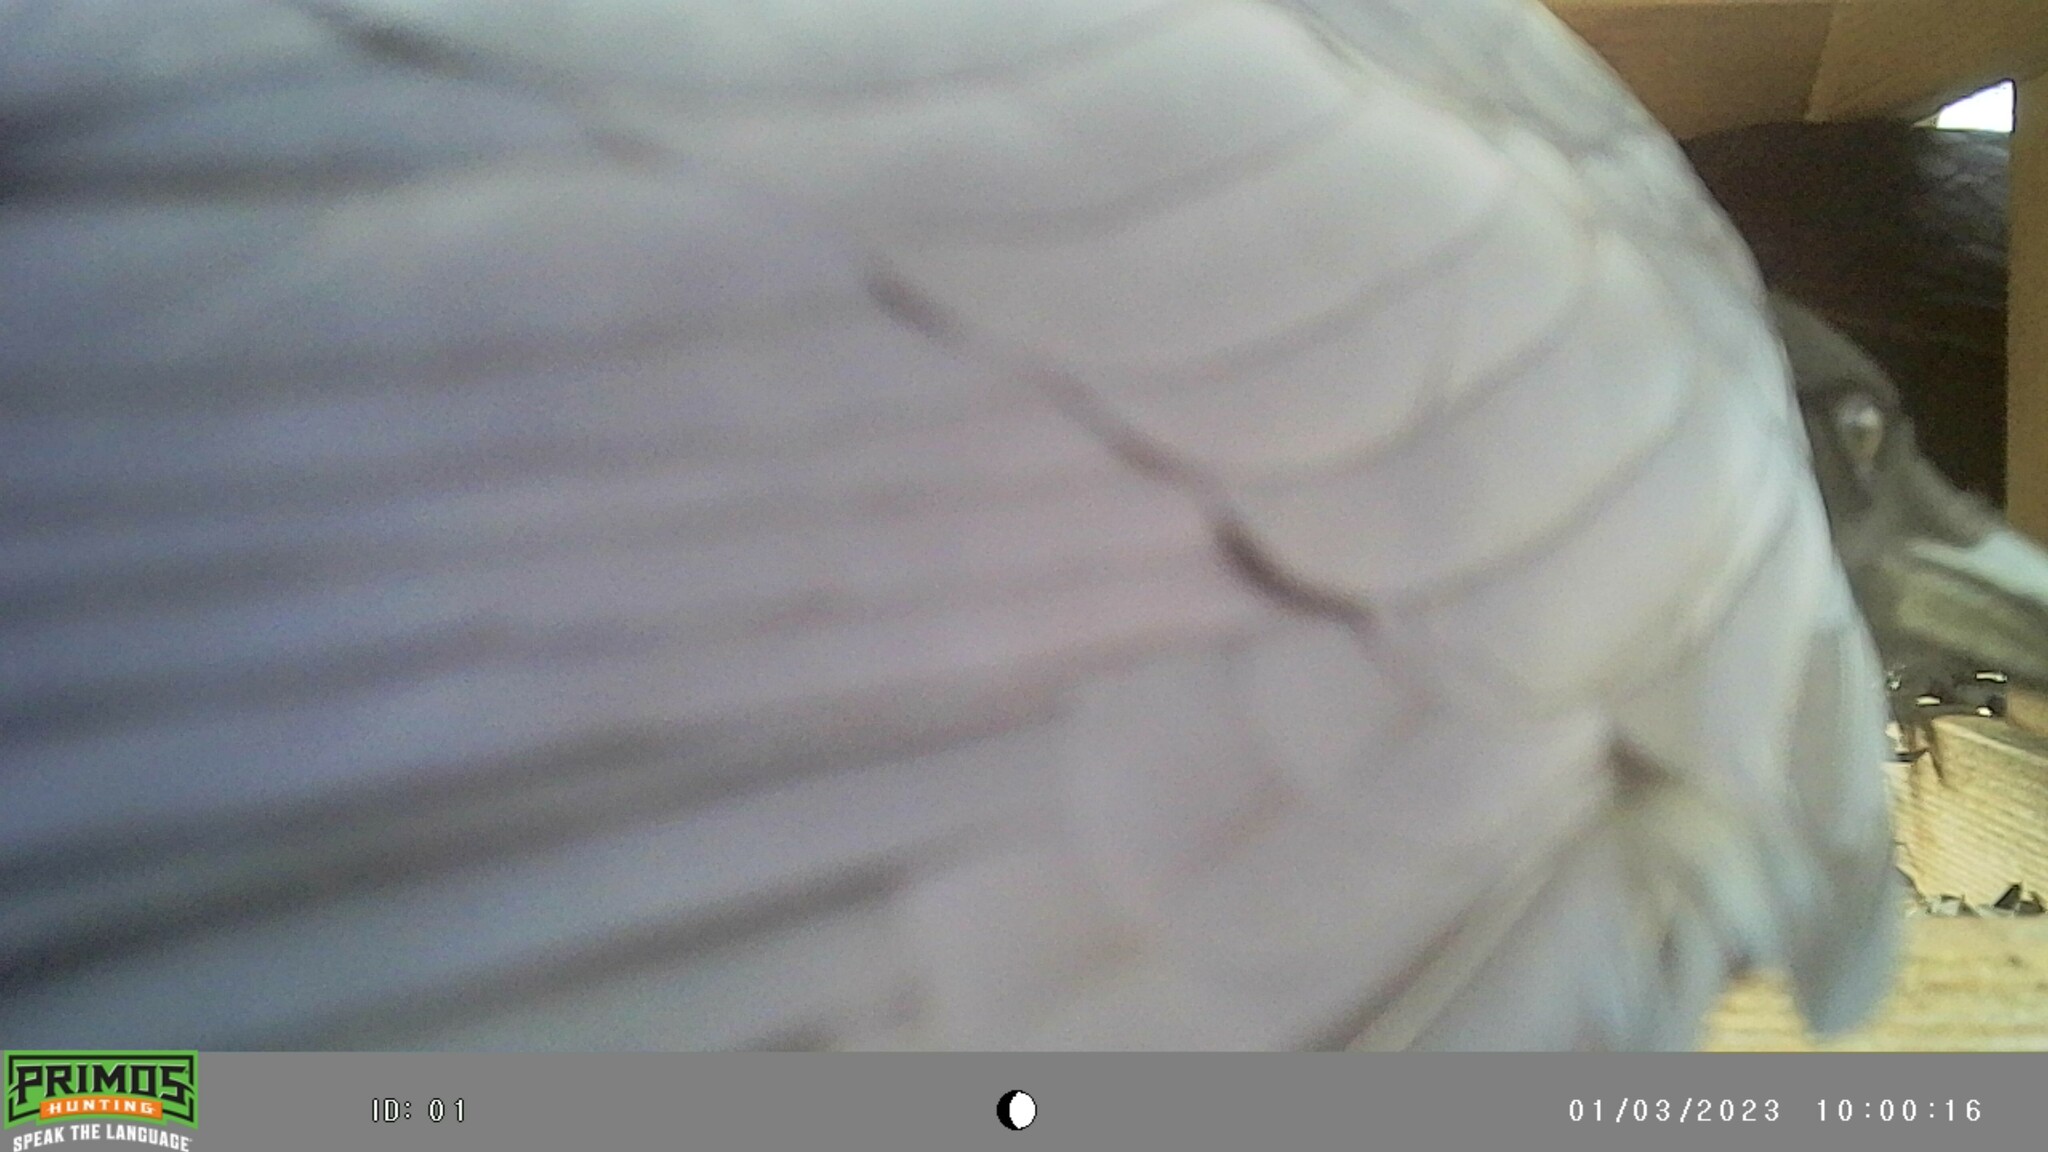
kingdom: Animalia
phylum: Chordata
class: Aves
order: Passeriformes
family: Corvidae
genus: Corvus
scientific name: Corvus brachyrhynchos
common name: American crow
